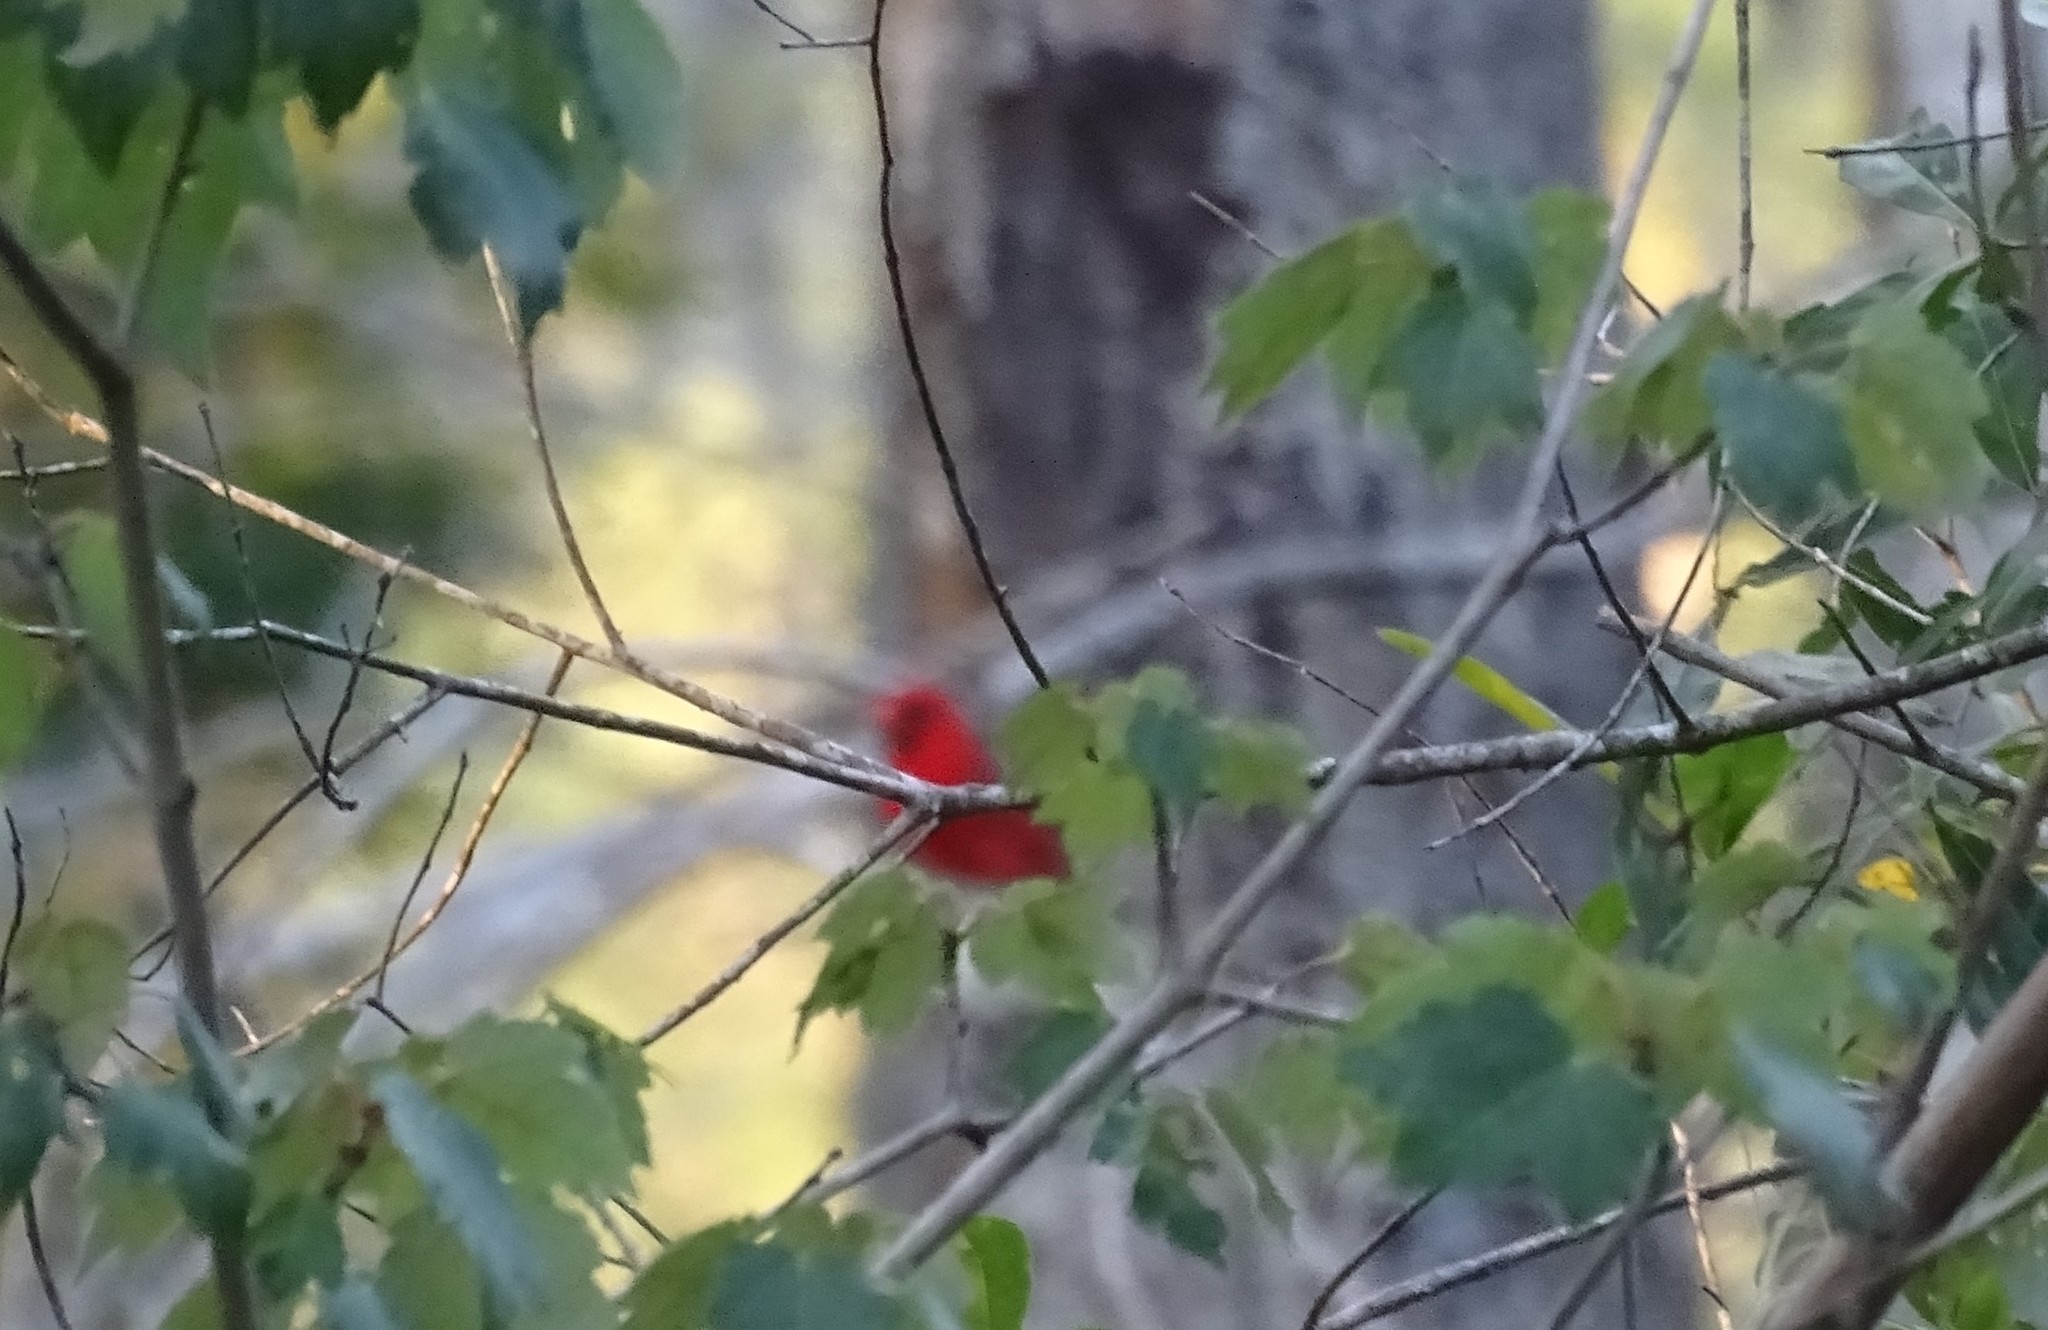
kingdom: Animalia
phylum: Chordata
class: Aves
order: Passeriformes
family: Cardinalidae
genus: Cardinalis
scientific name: Cardinalis cardinalis
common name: Northern cardinal
